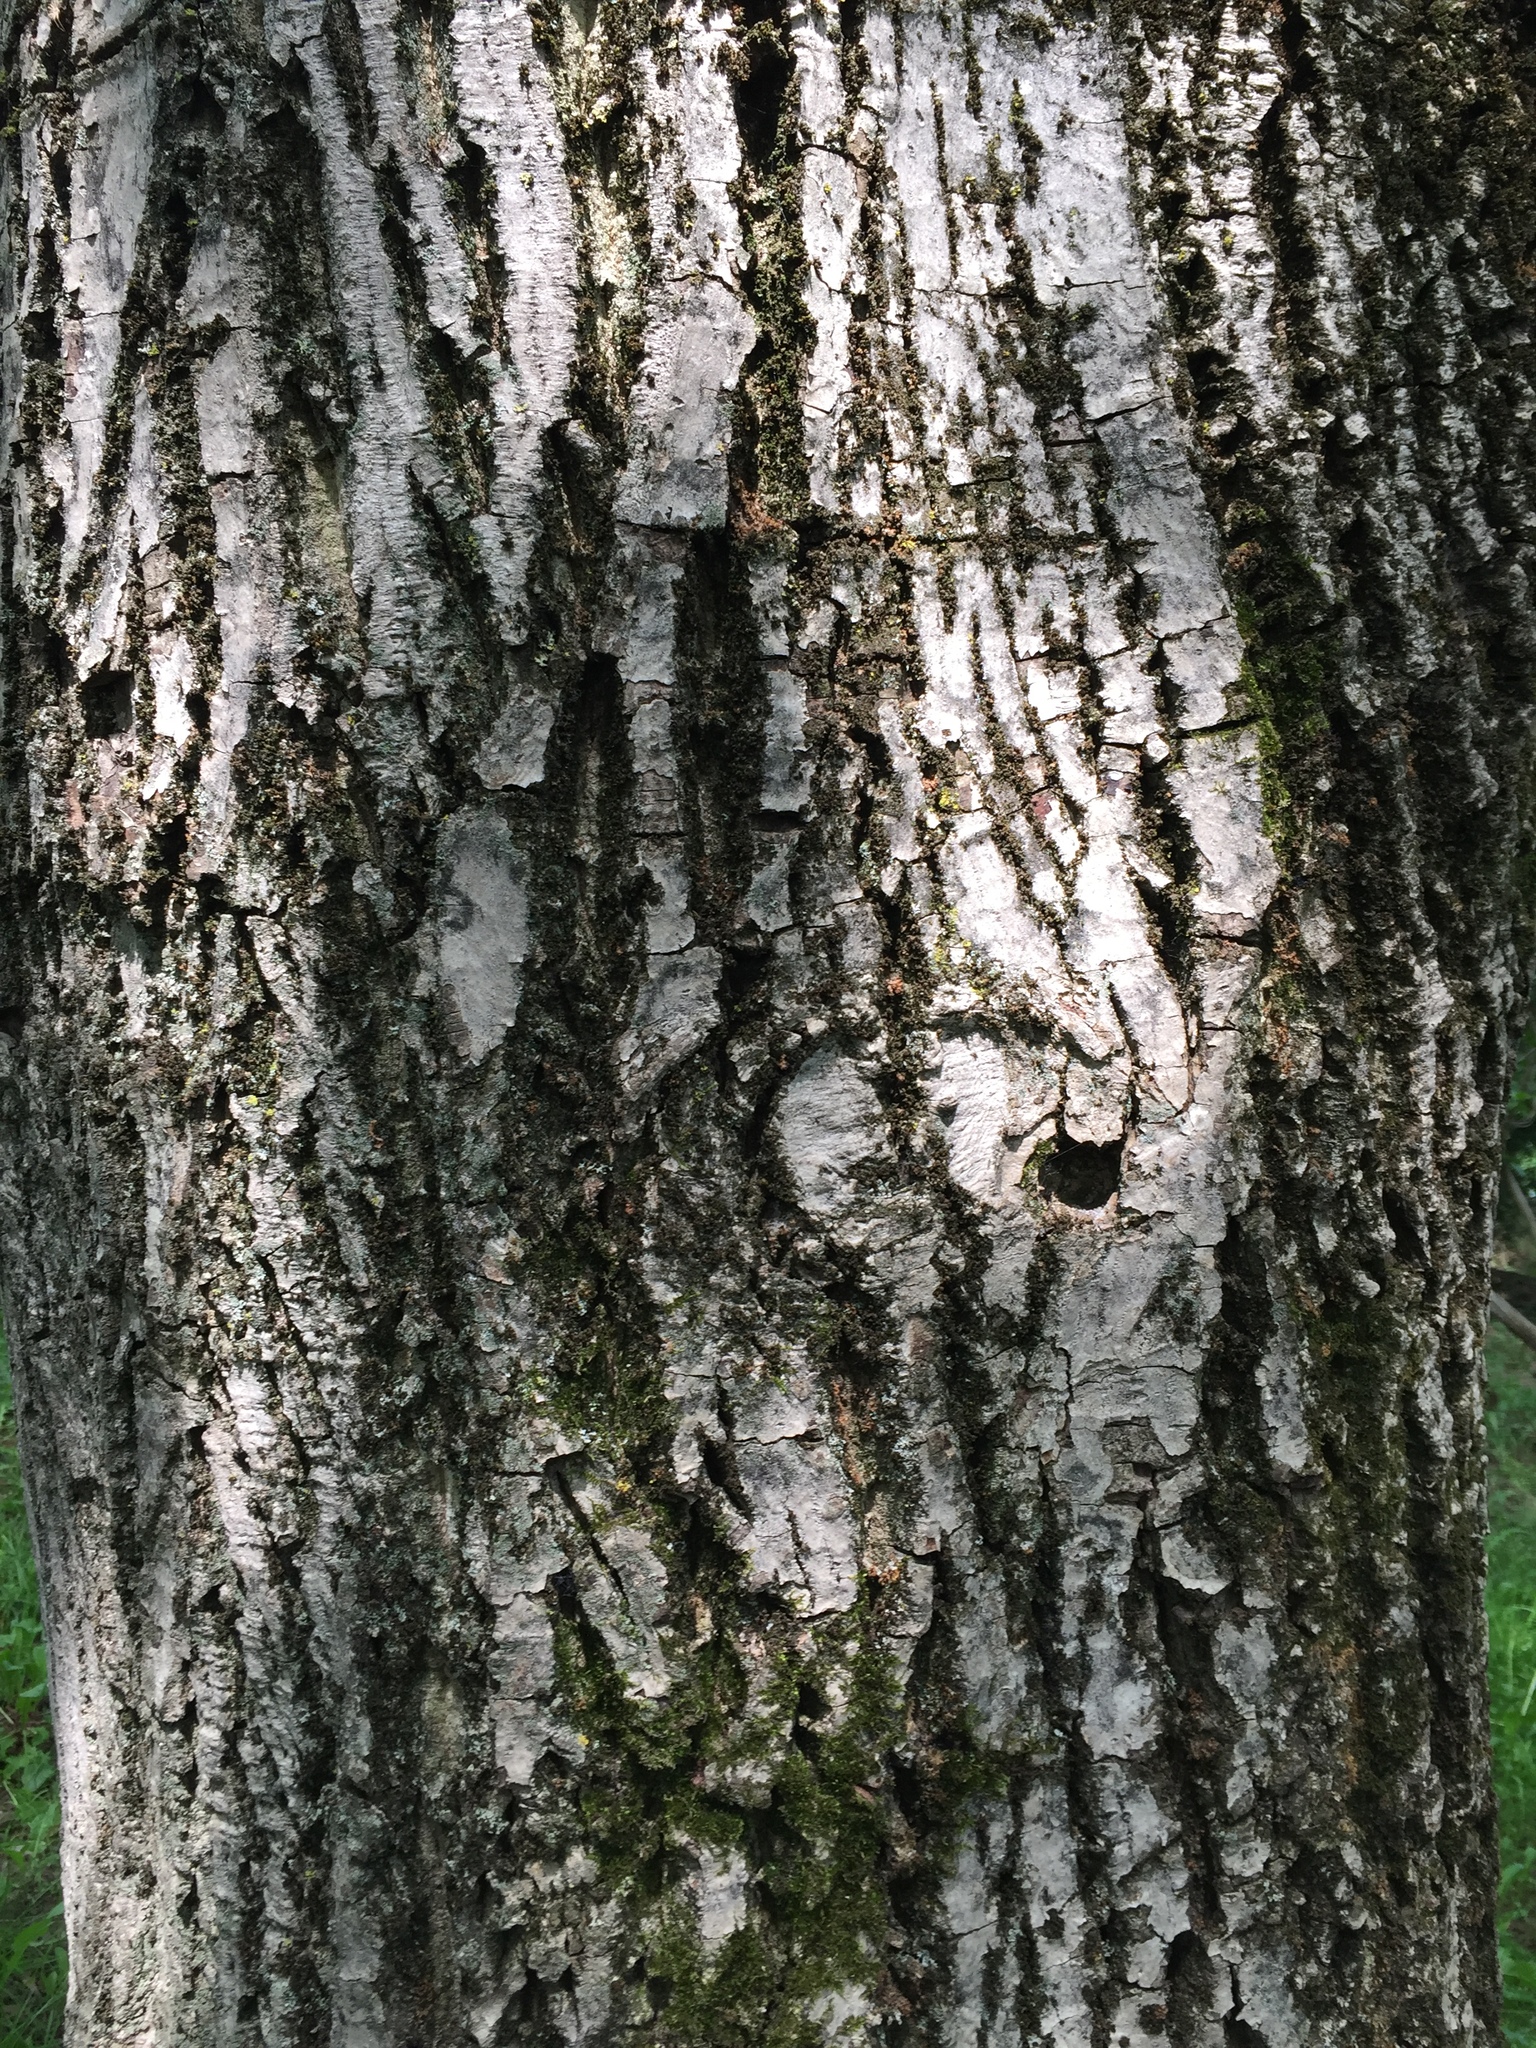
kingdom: Plantae
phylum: Tracheophyta
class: Magnoliopsida
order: Fagales
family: Juglandaceae
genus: Juglans
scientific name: Juglans regia
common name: Walnut
